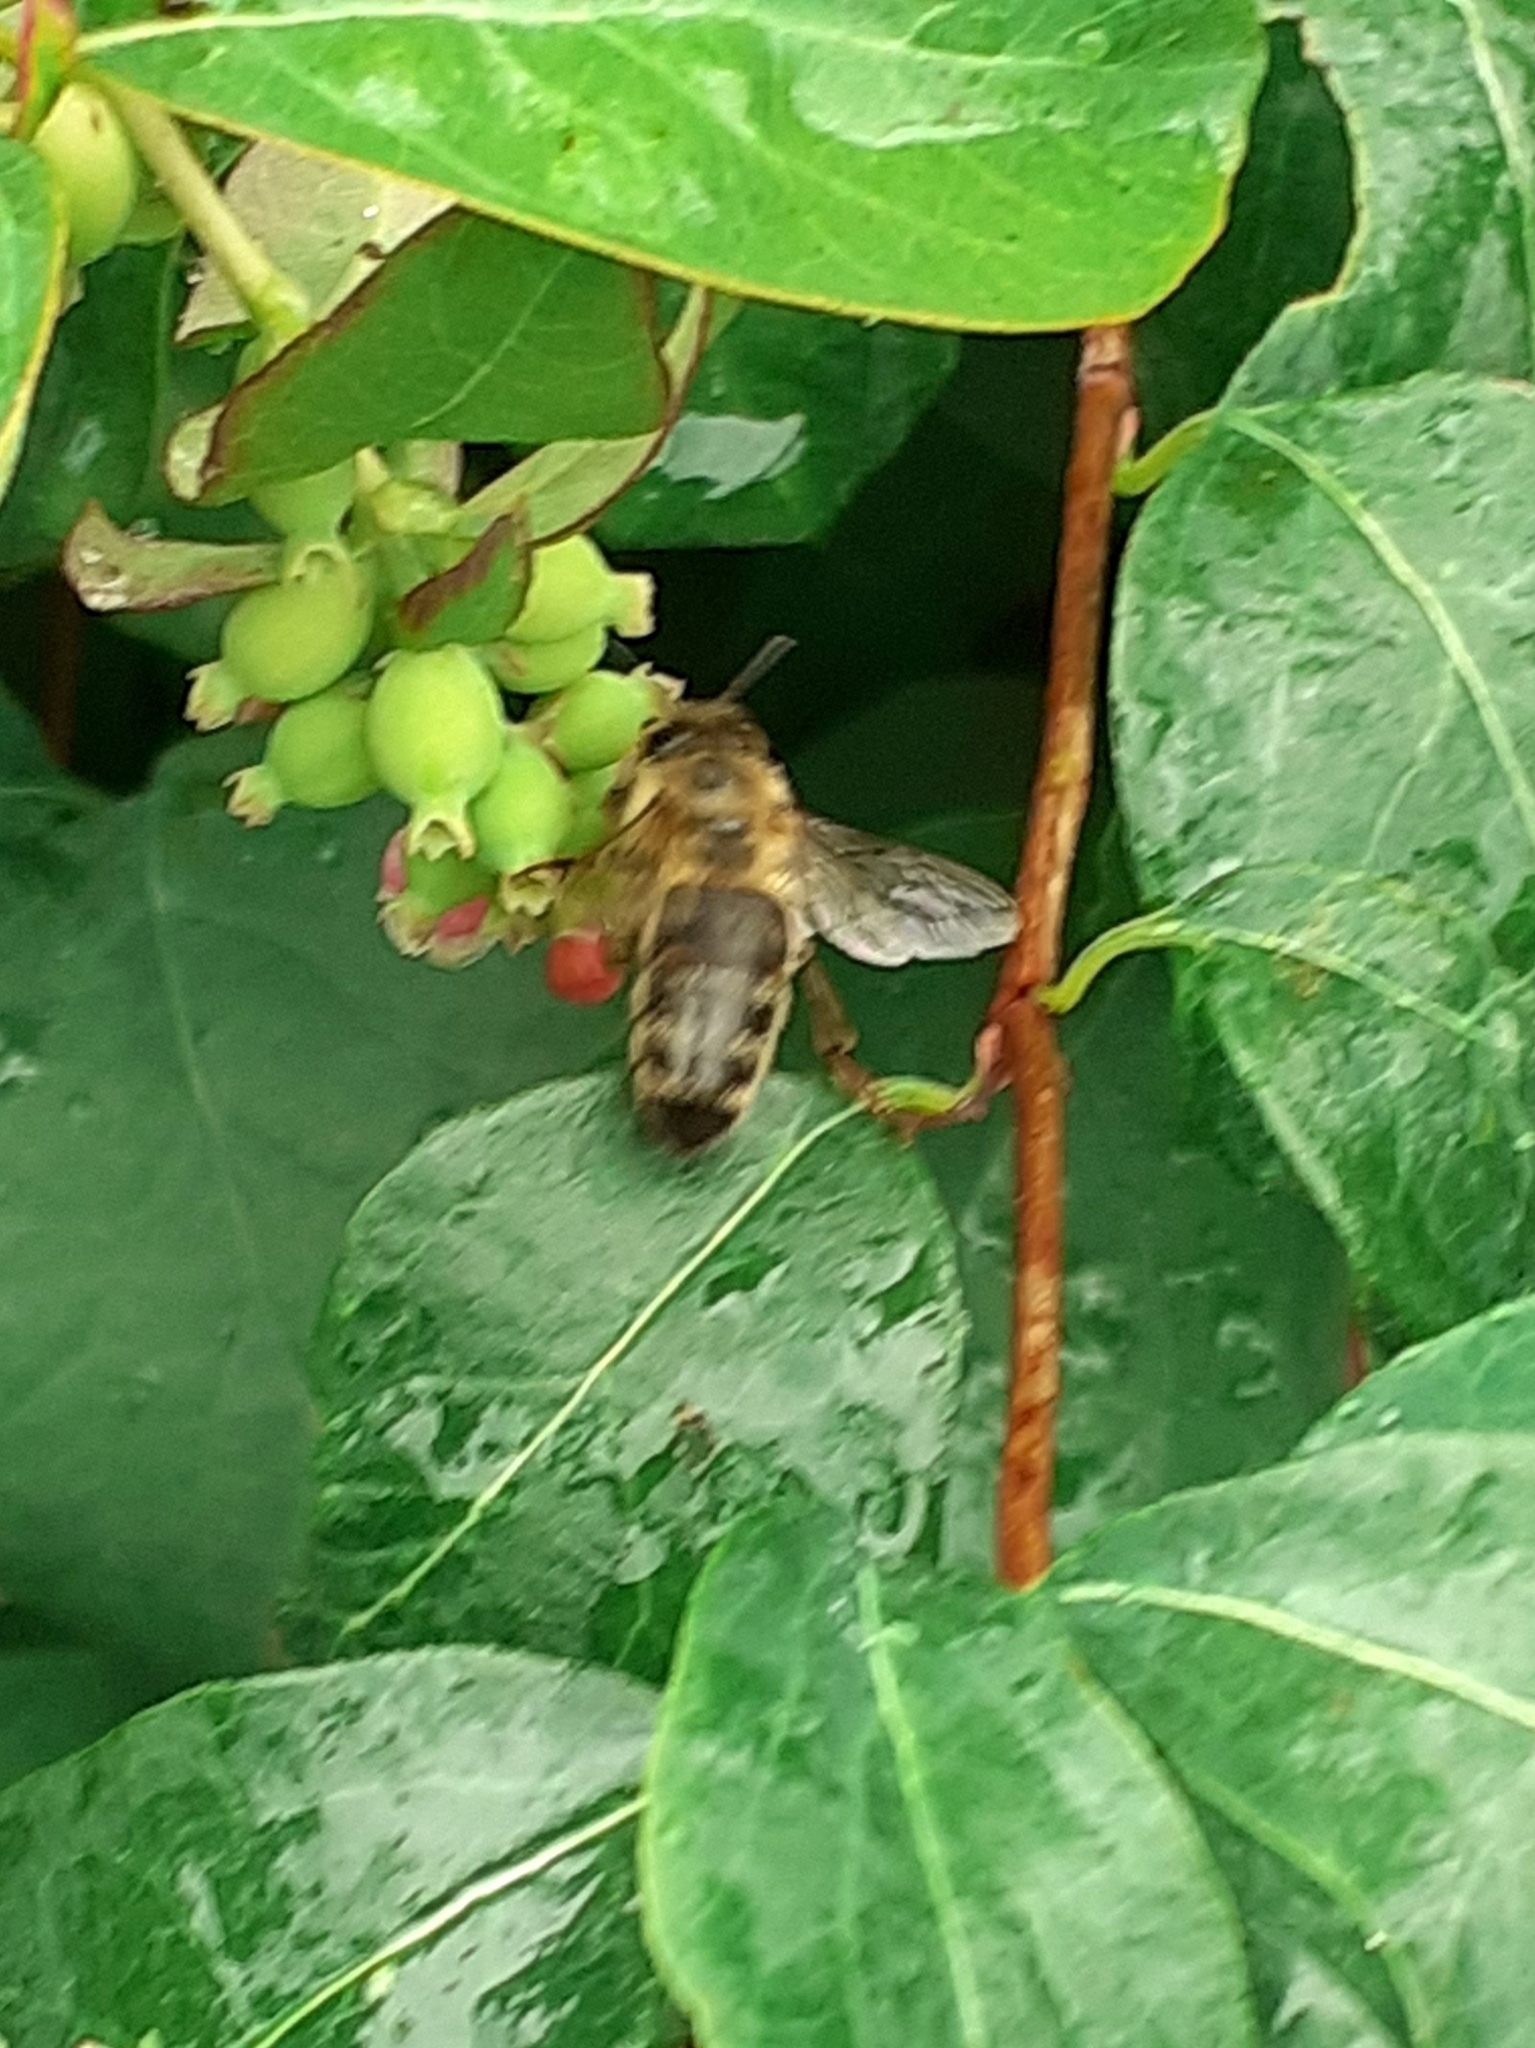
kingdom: Animalia
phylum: Arthropoda
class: Insecta
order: Hymenoptera
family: Apidae
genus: Apis
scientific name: Apis mellifera
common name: Honey bee
